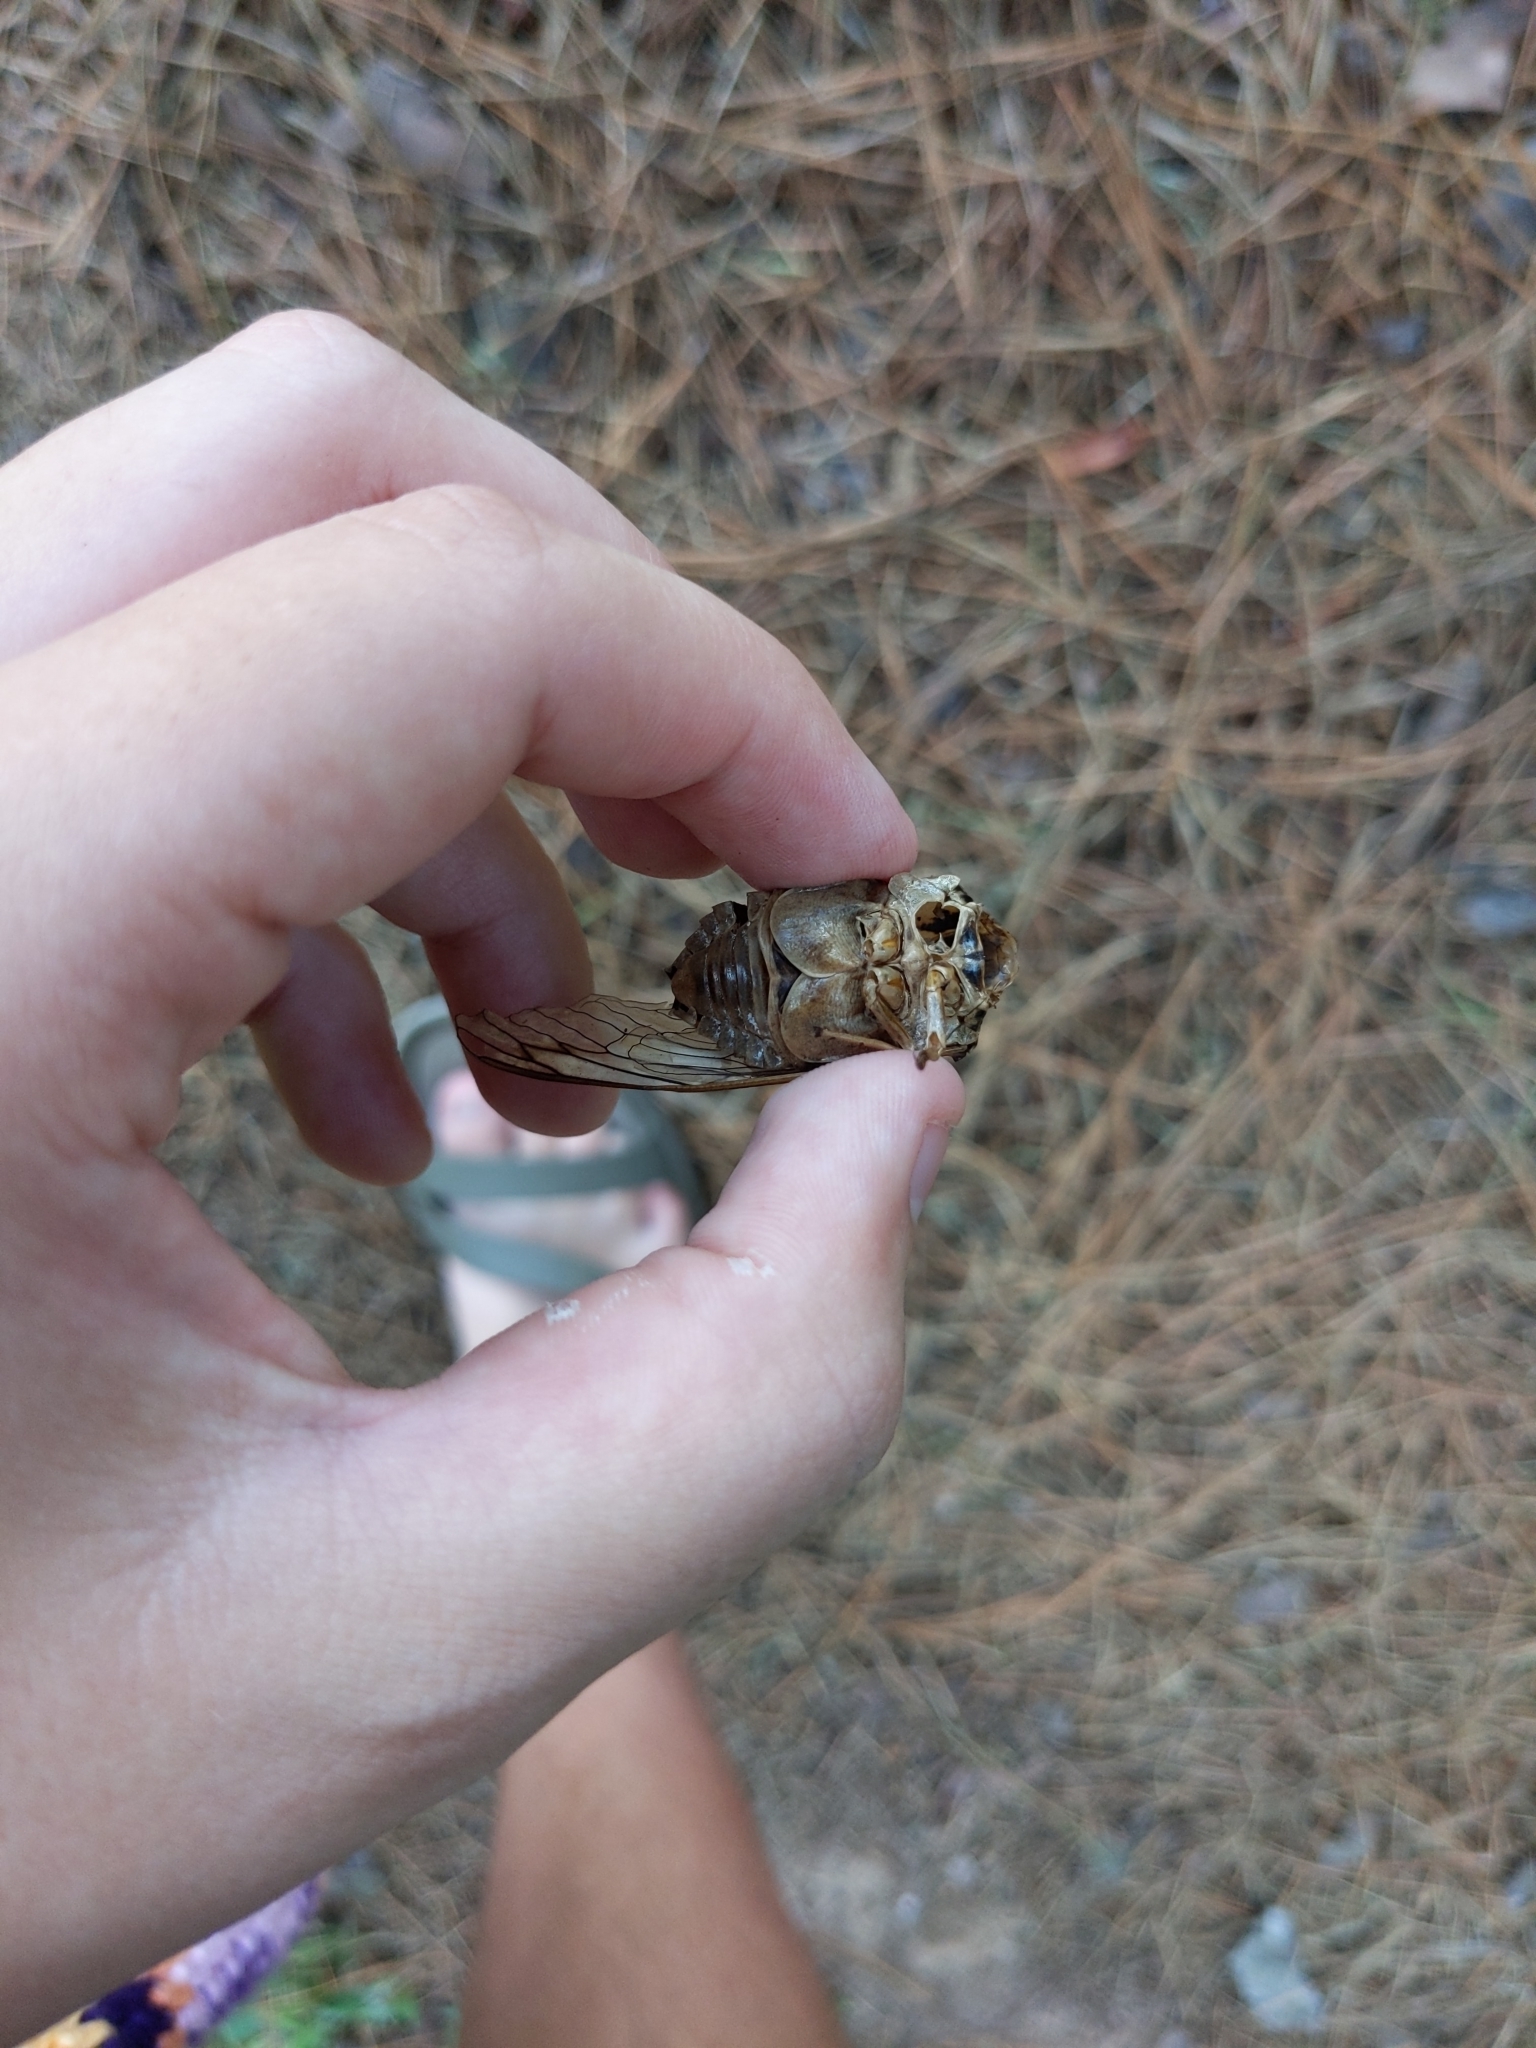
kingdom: Animalia
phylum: Arthropoda
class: Insecta
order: Hemiptera
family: Cicadidae
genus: Megatibicen
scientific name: Megatibicen resh
